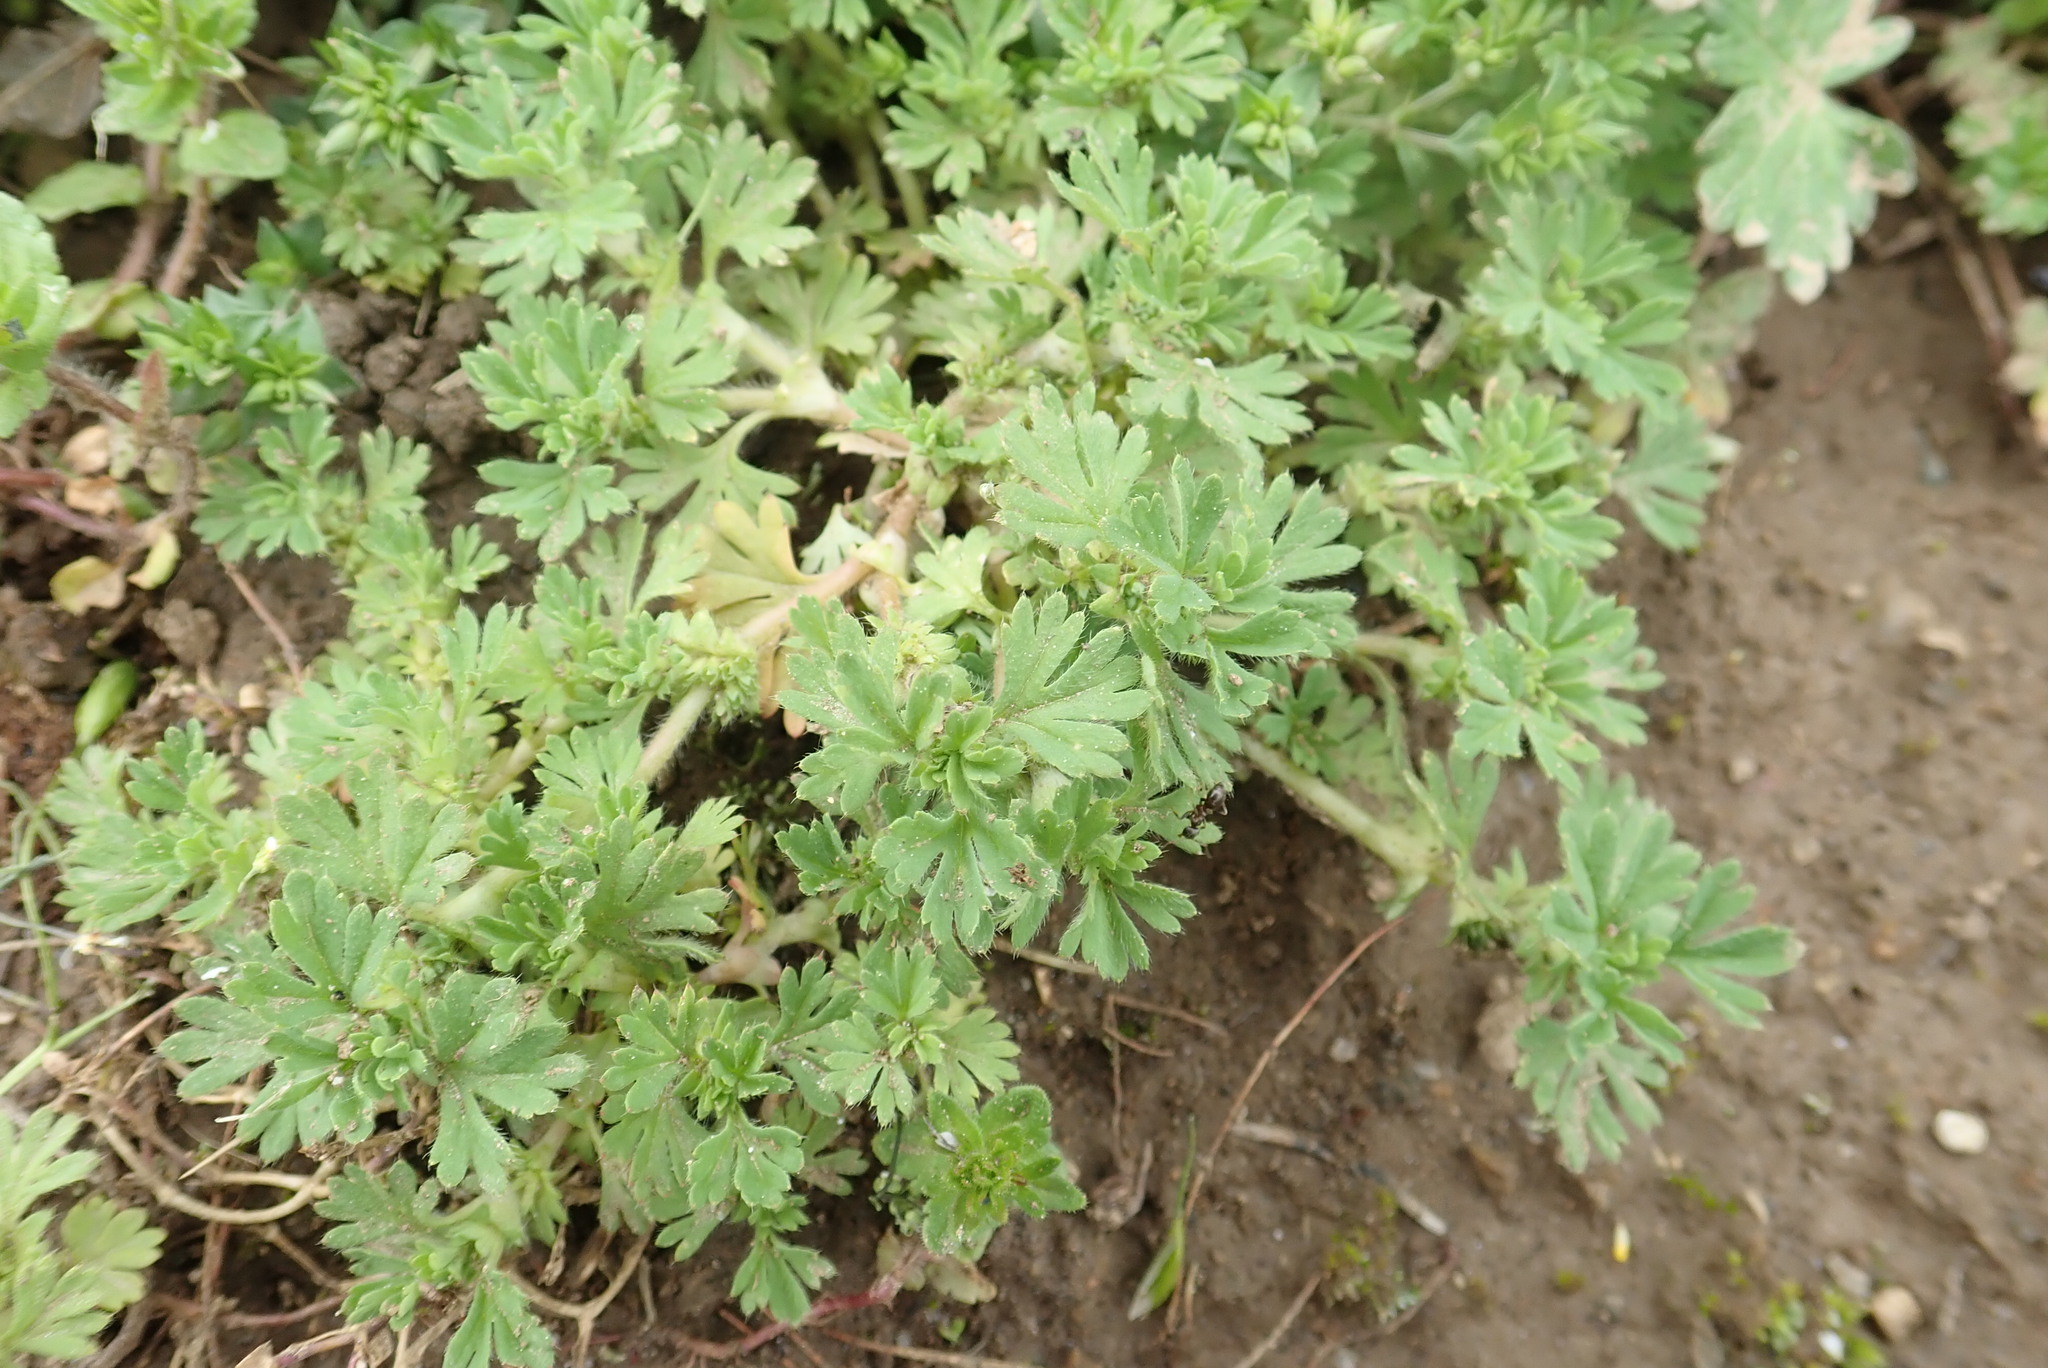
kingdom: Plantae
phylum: Tracheophyta
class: Magnoliopsida
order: Rosales
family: Rosaceae
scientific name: Rosaceae
